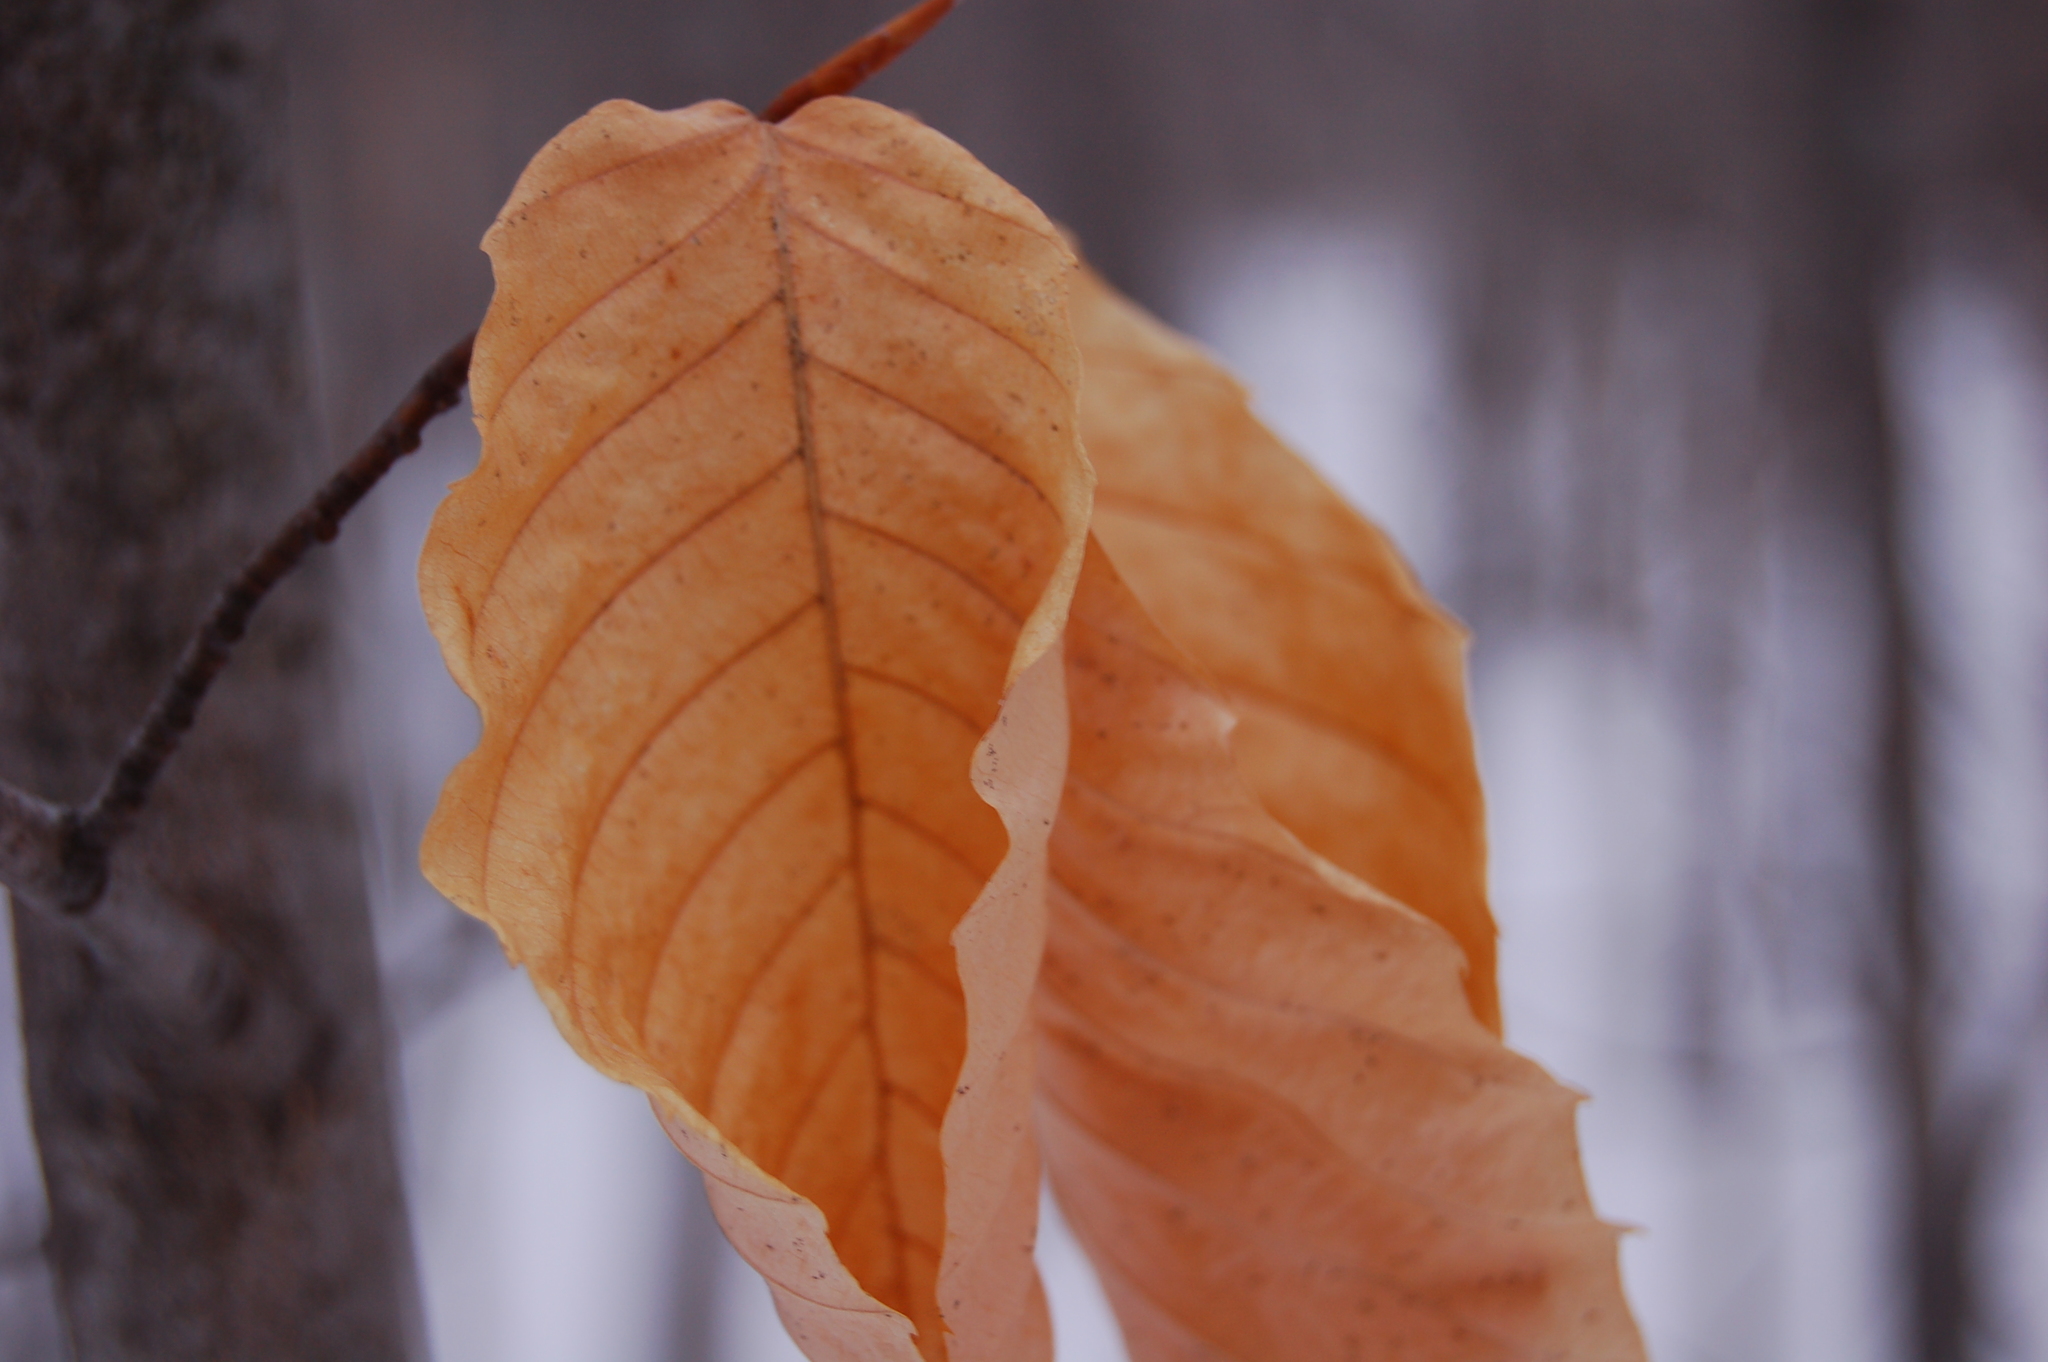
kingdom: Plantae
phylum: Tracheophyta
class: Magnoliopsida
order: Fagales
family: Fagaceae
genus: Fagus
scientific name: Fagus grandifolia
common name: American beech
